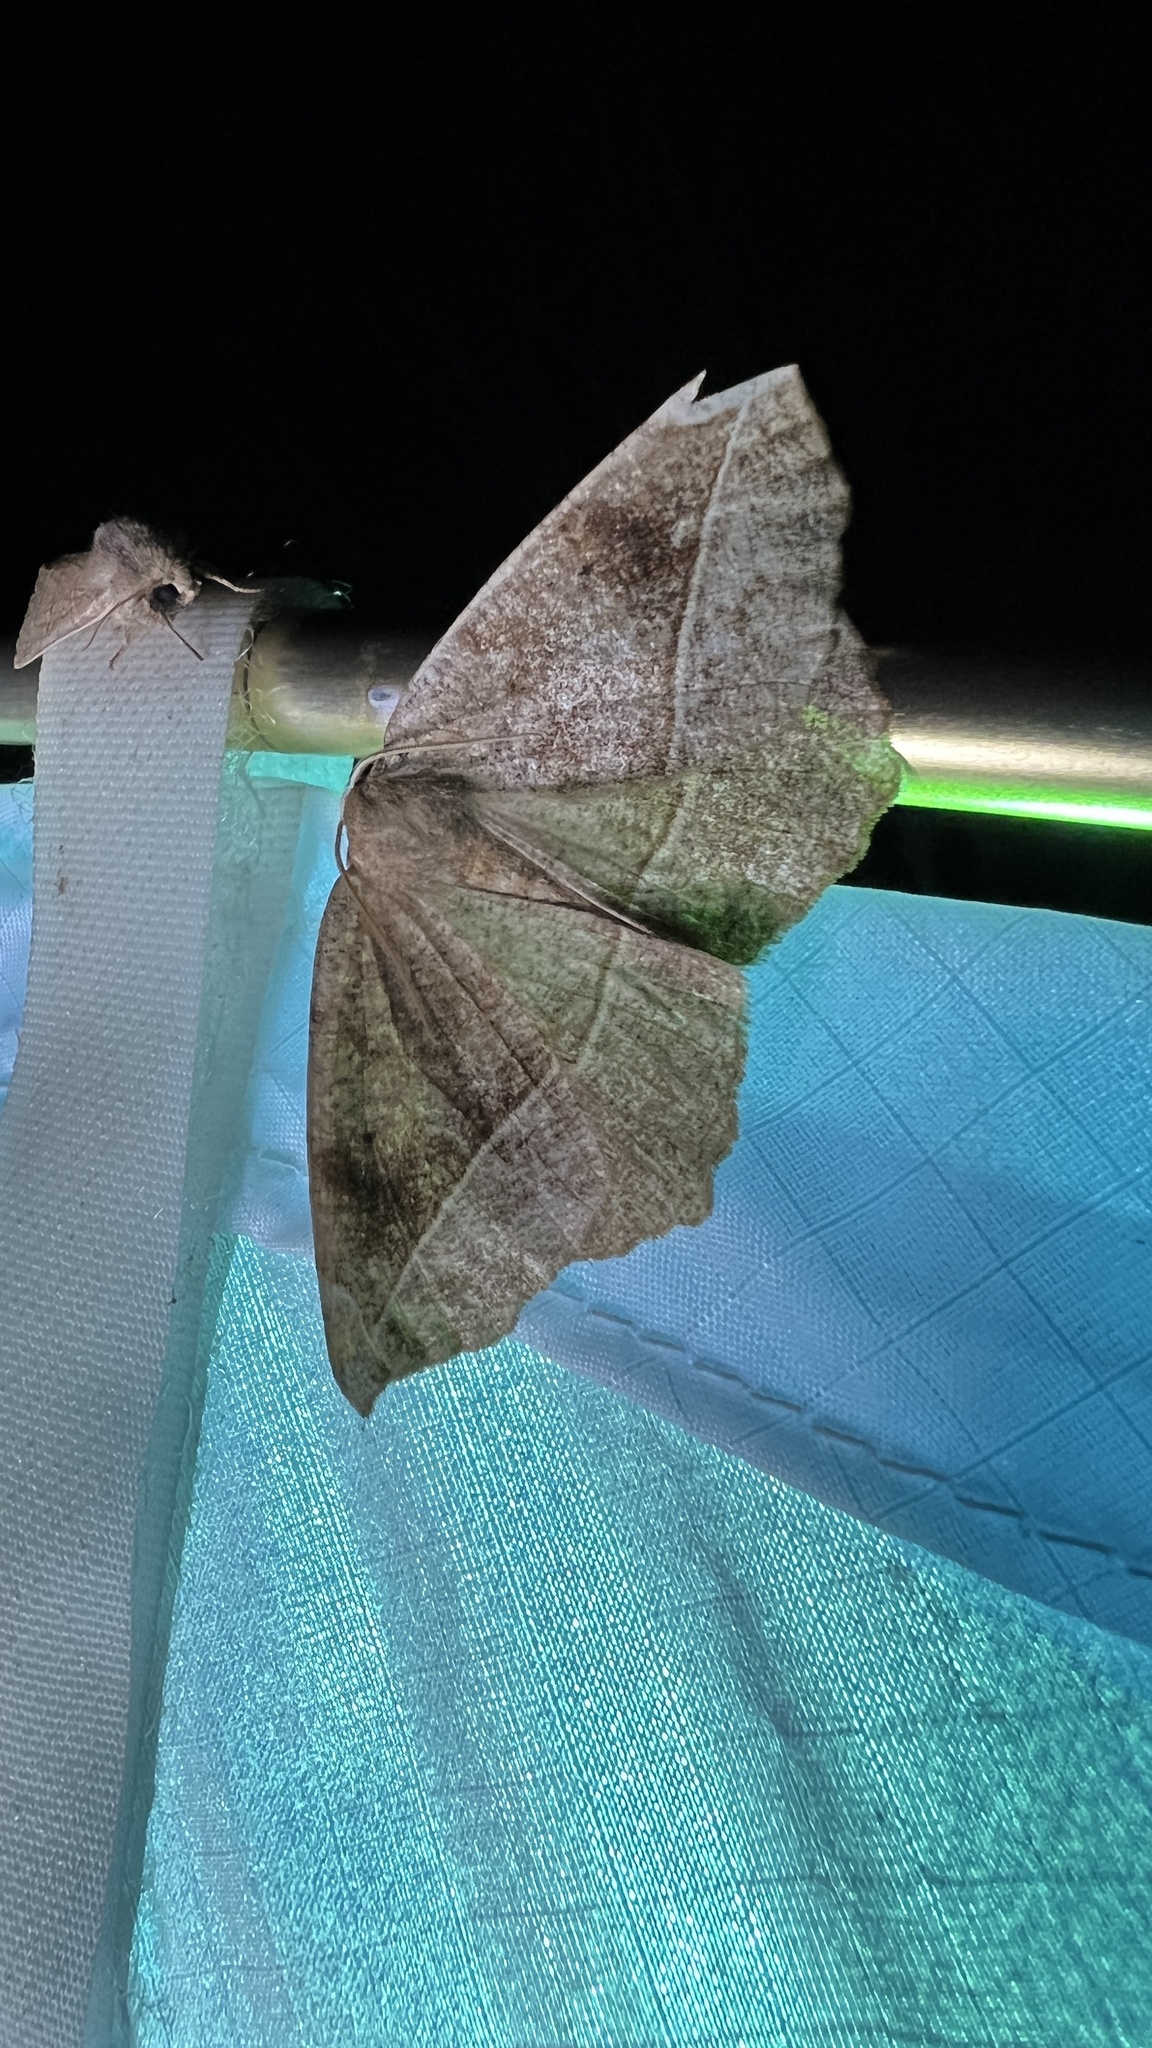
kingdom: Animalia
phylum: Arthropoda
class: Insecta
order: Lepidoptera
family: Geometridae
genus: Eutrapela
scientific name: Eutrapela clemataria
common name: Curved-toothed geometer
